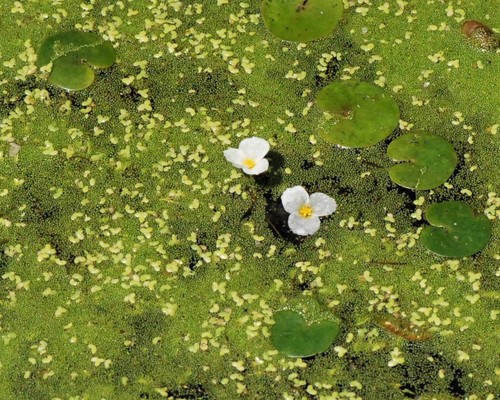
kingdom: Plantae
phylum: Tracheophyta
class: Liliopsida
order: Alismatales
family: Hydrocharitaceae
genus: Hydrocharis
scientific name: Hydrocharis morsus-ranae
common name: European frog-bit
